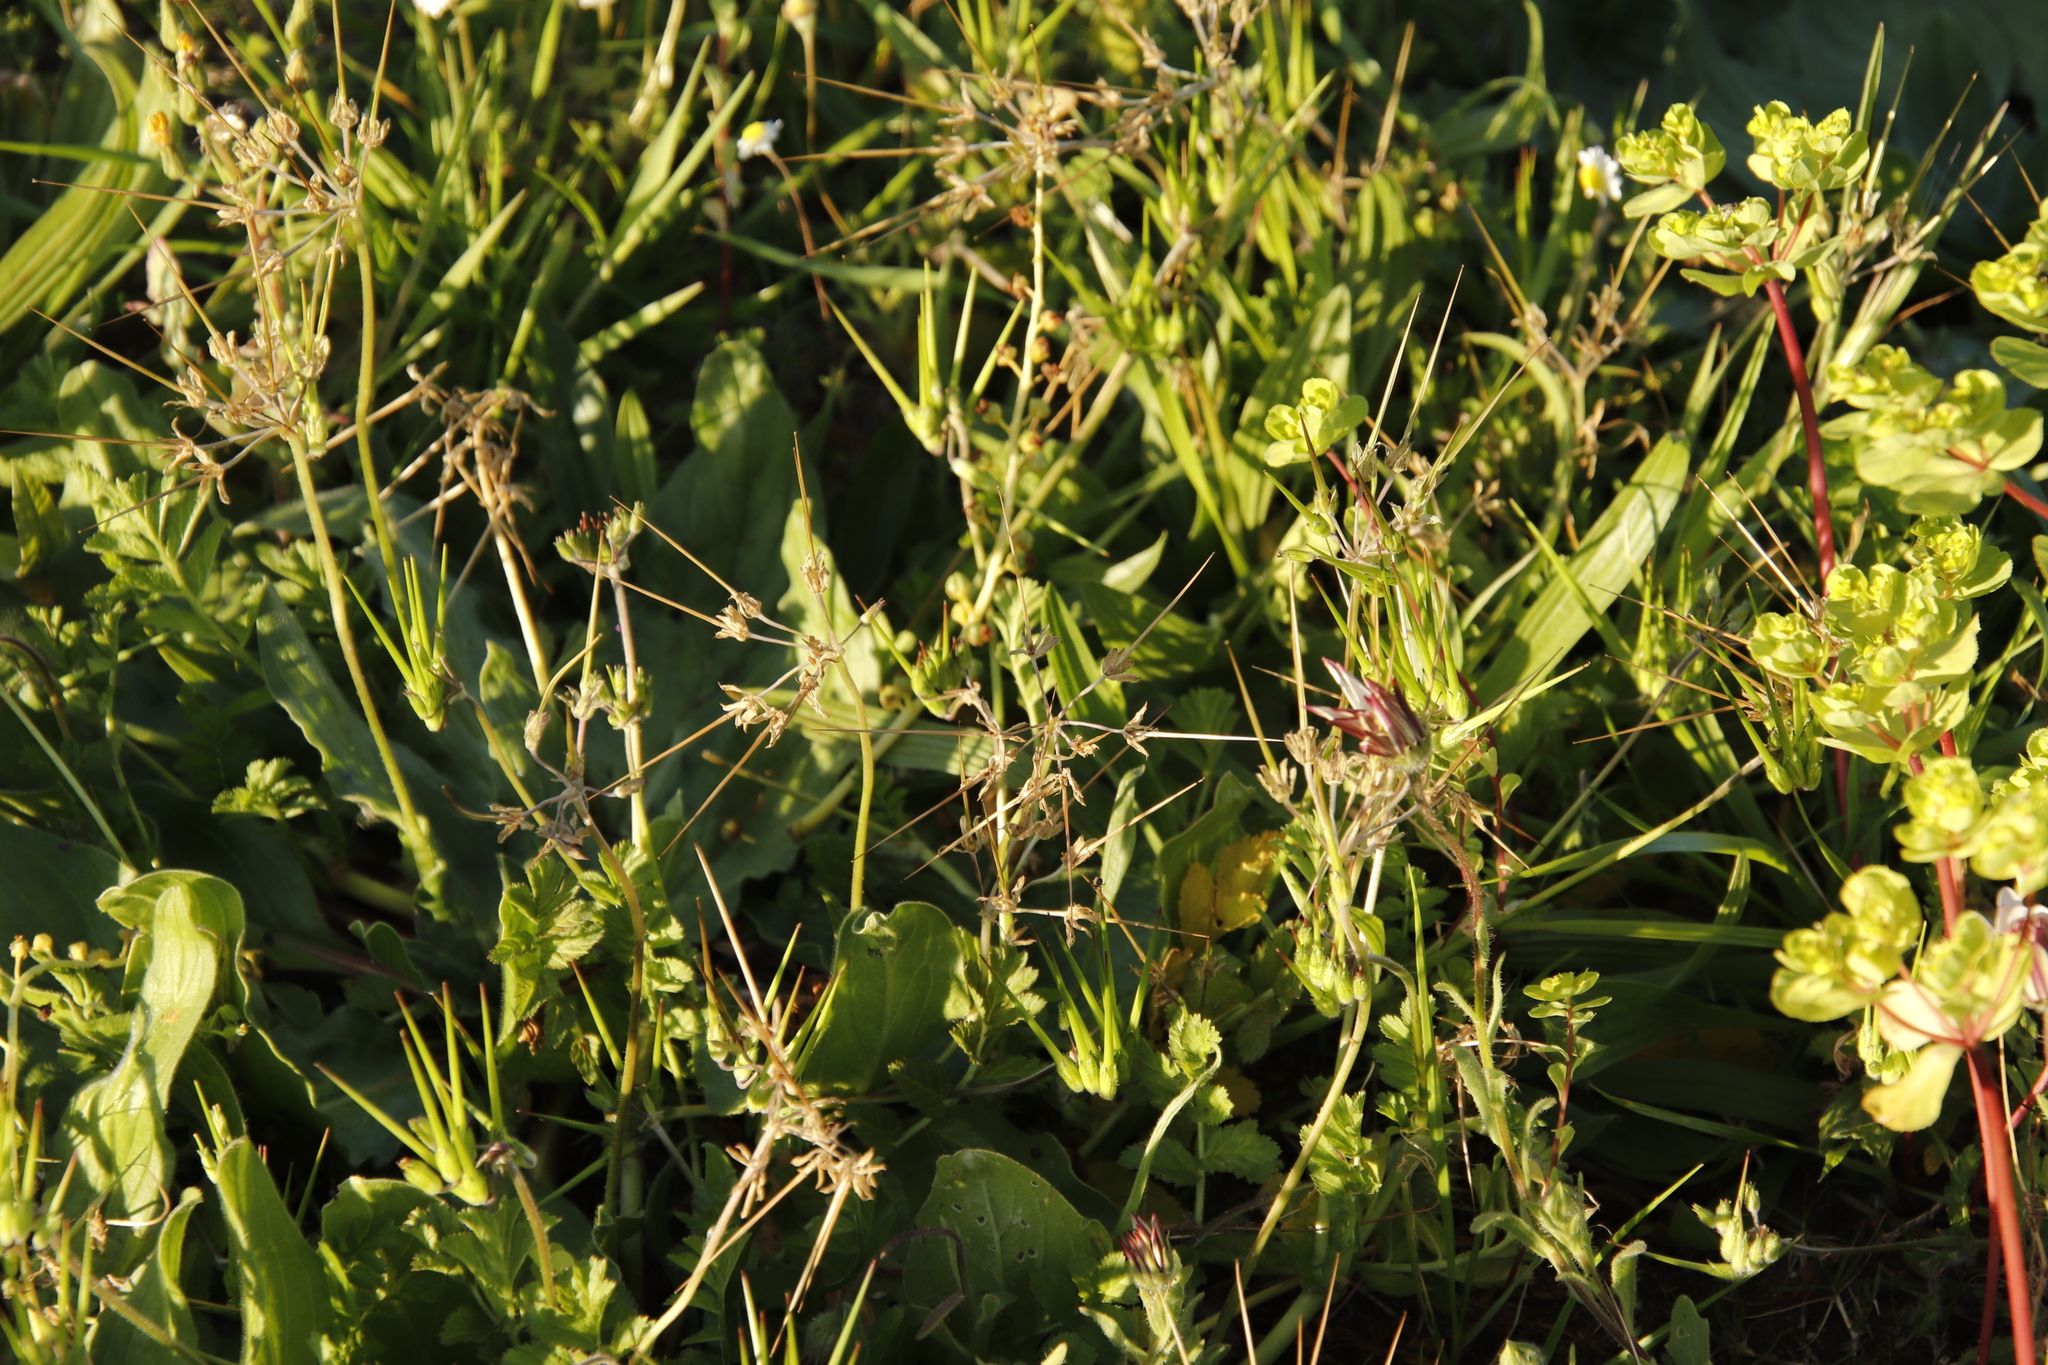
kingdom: Plantae
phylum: Tracheophyta
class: Magnoliopsida
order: Geraniales
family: Geraniaceae
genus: Erodium
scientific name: Erodium moschatum
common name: Musk stork's-bill
